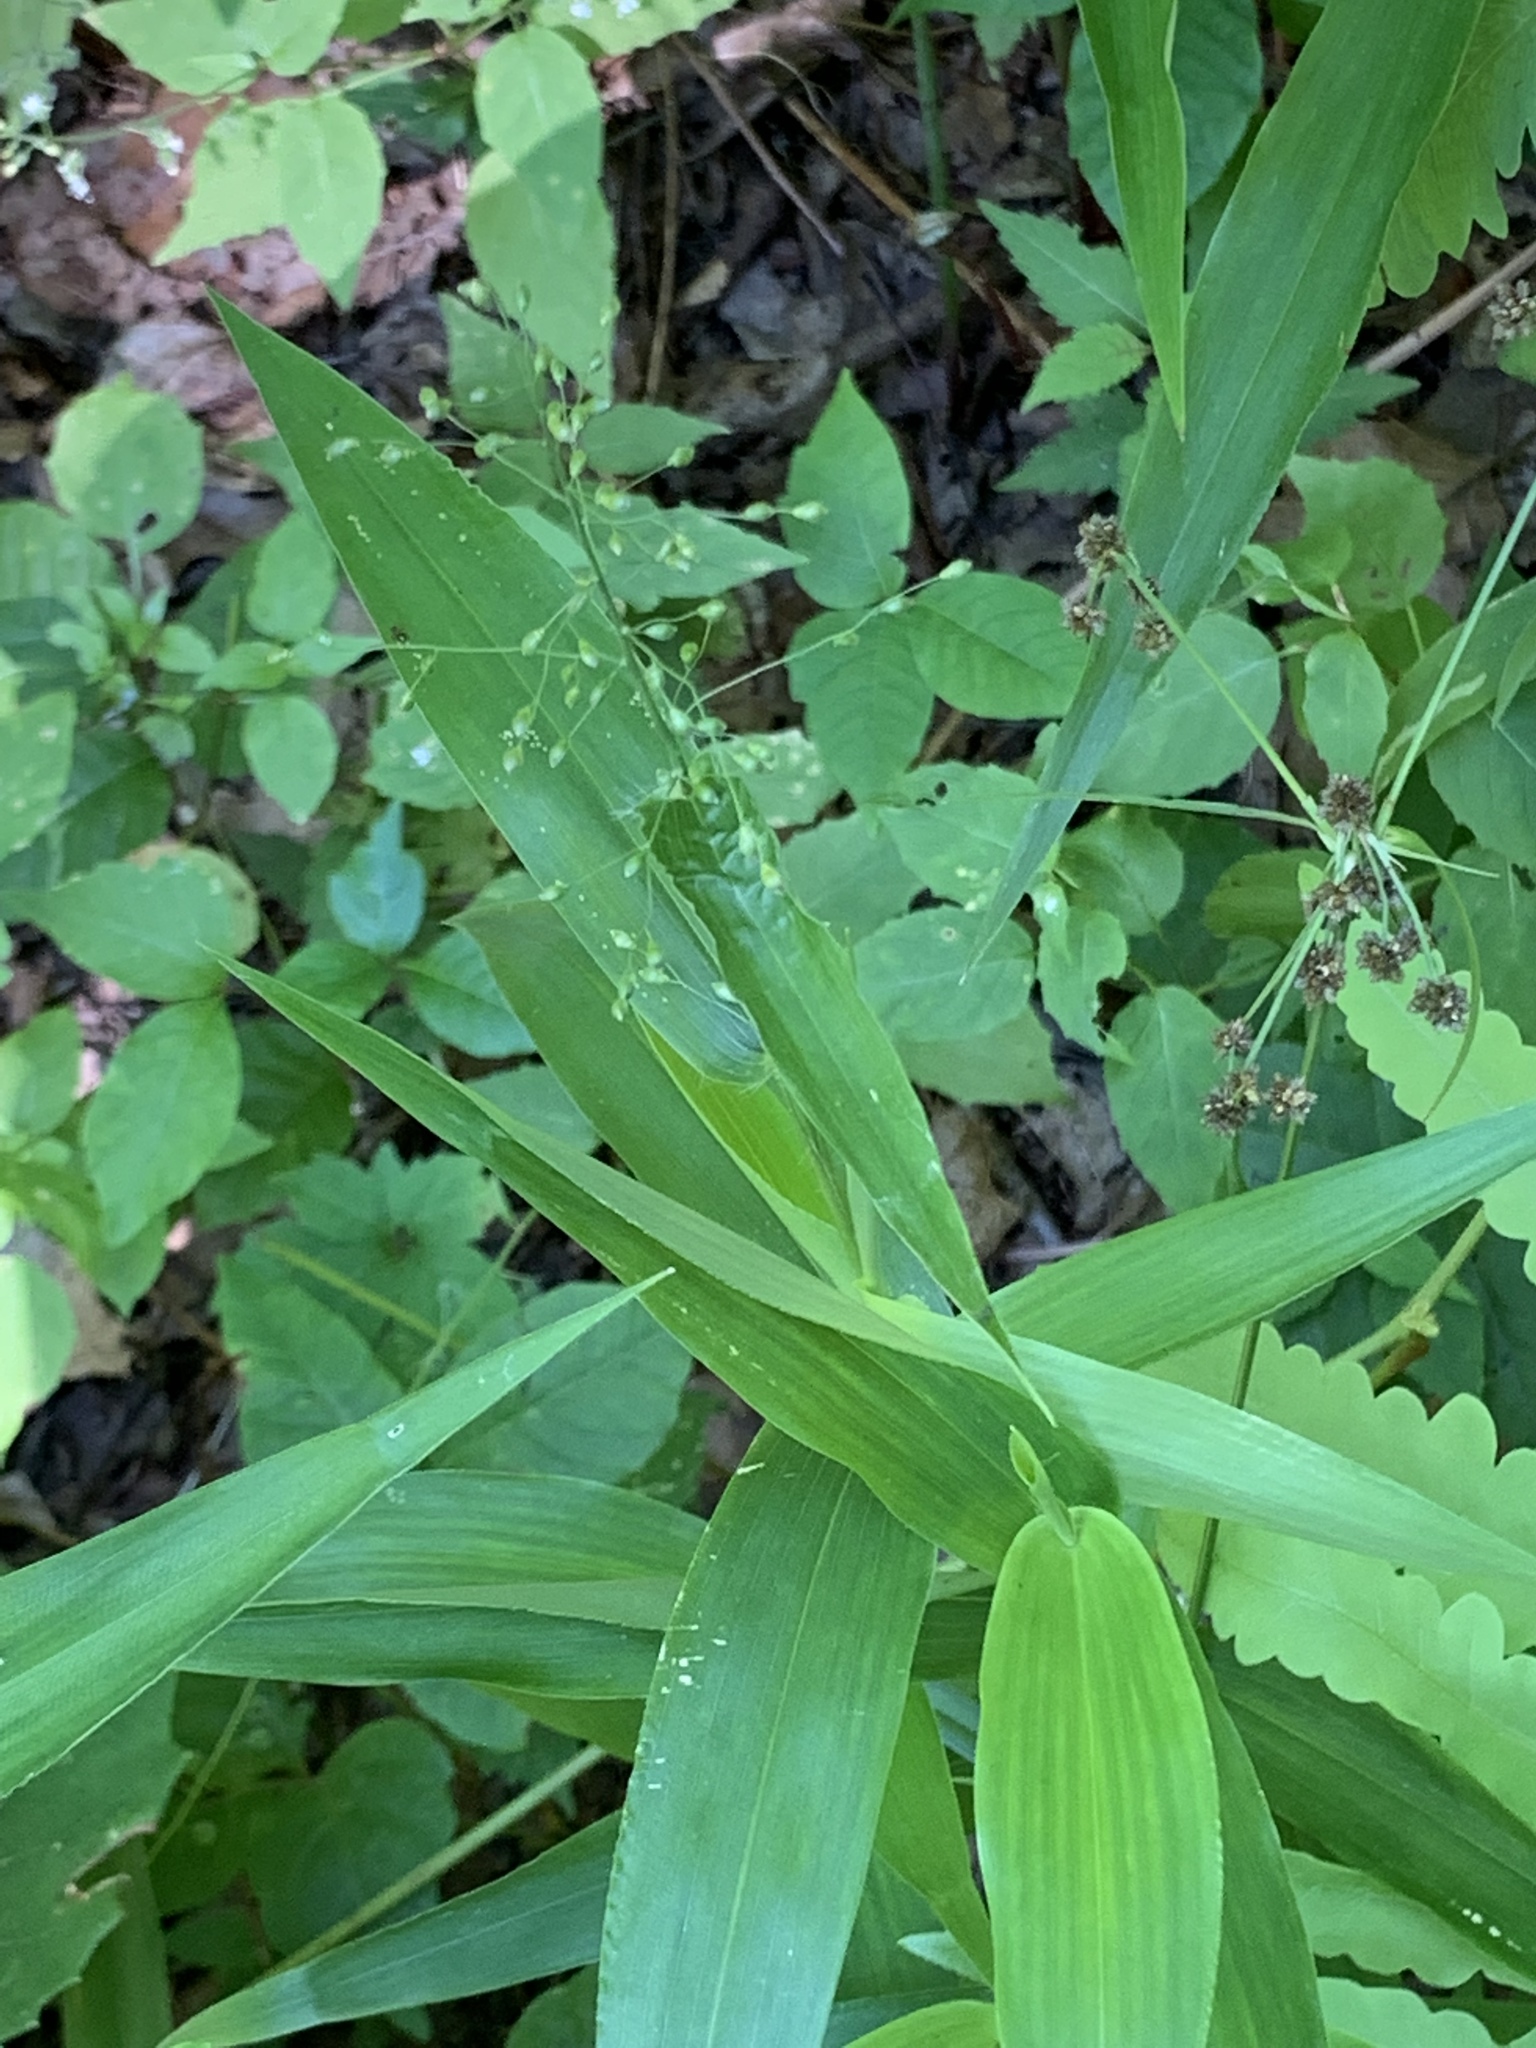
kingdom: Plantae
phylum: Tracheophyta
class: Liliopsida
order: Poales
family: Poaceae
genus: Dichanthelium
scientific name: Dichanthelium clandestinum
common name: Deer-tongue grass
